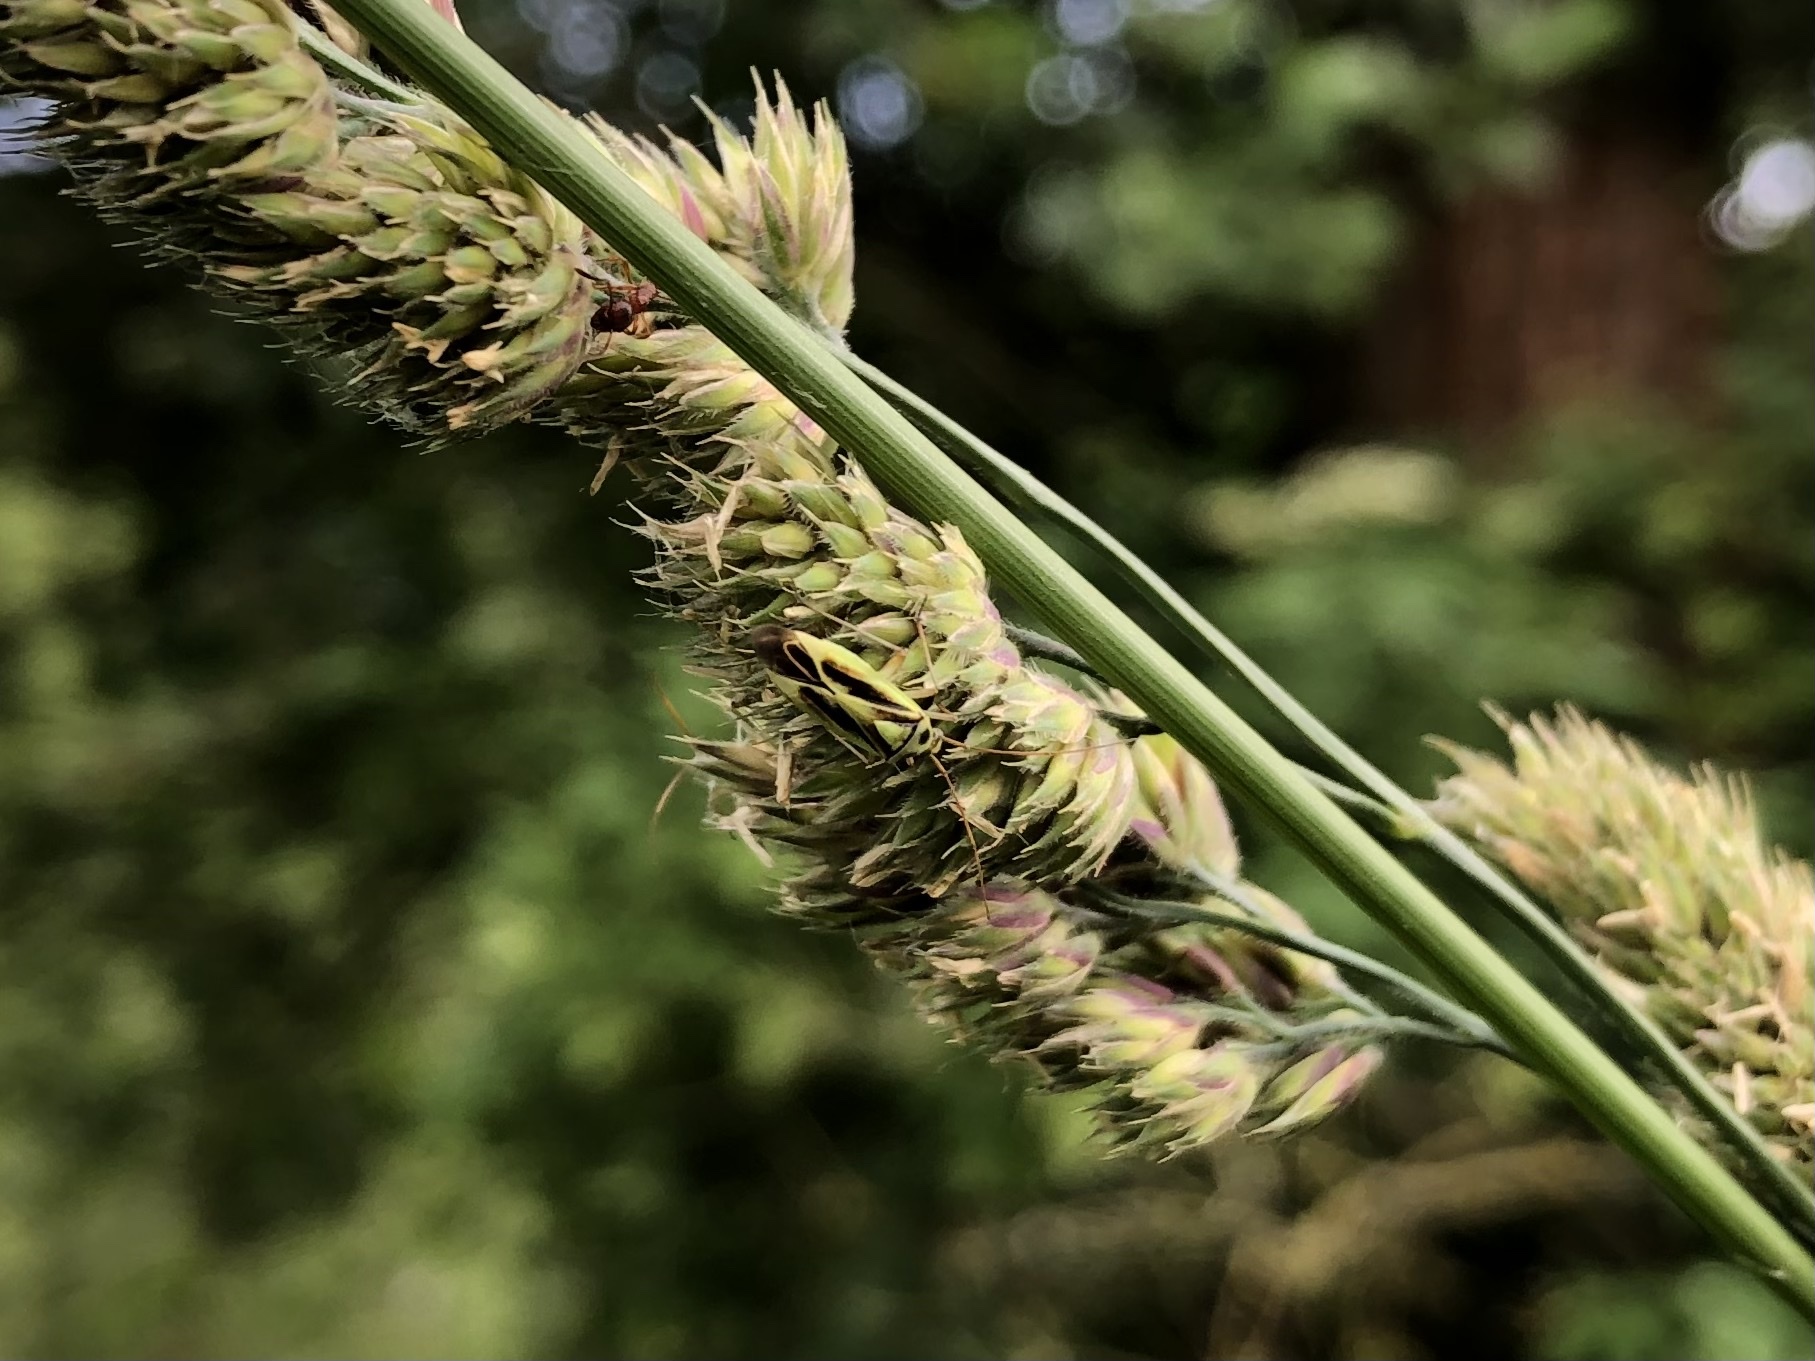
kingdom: Animalia
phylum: Arthropoda
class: Insecta
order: Hemiptera
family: Miridae
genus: Stenotus
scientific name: Stenotus binotatus
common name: Plant bug
